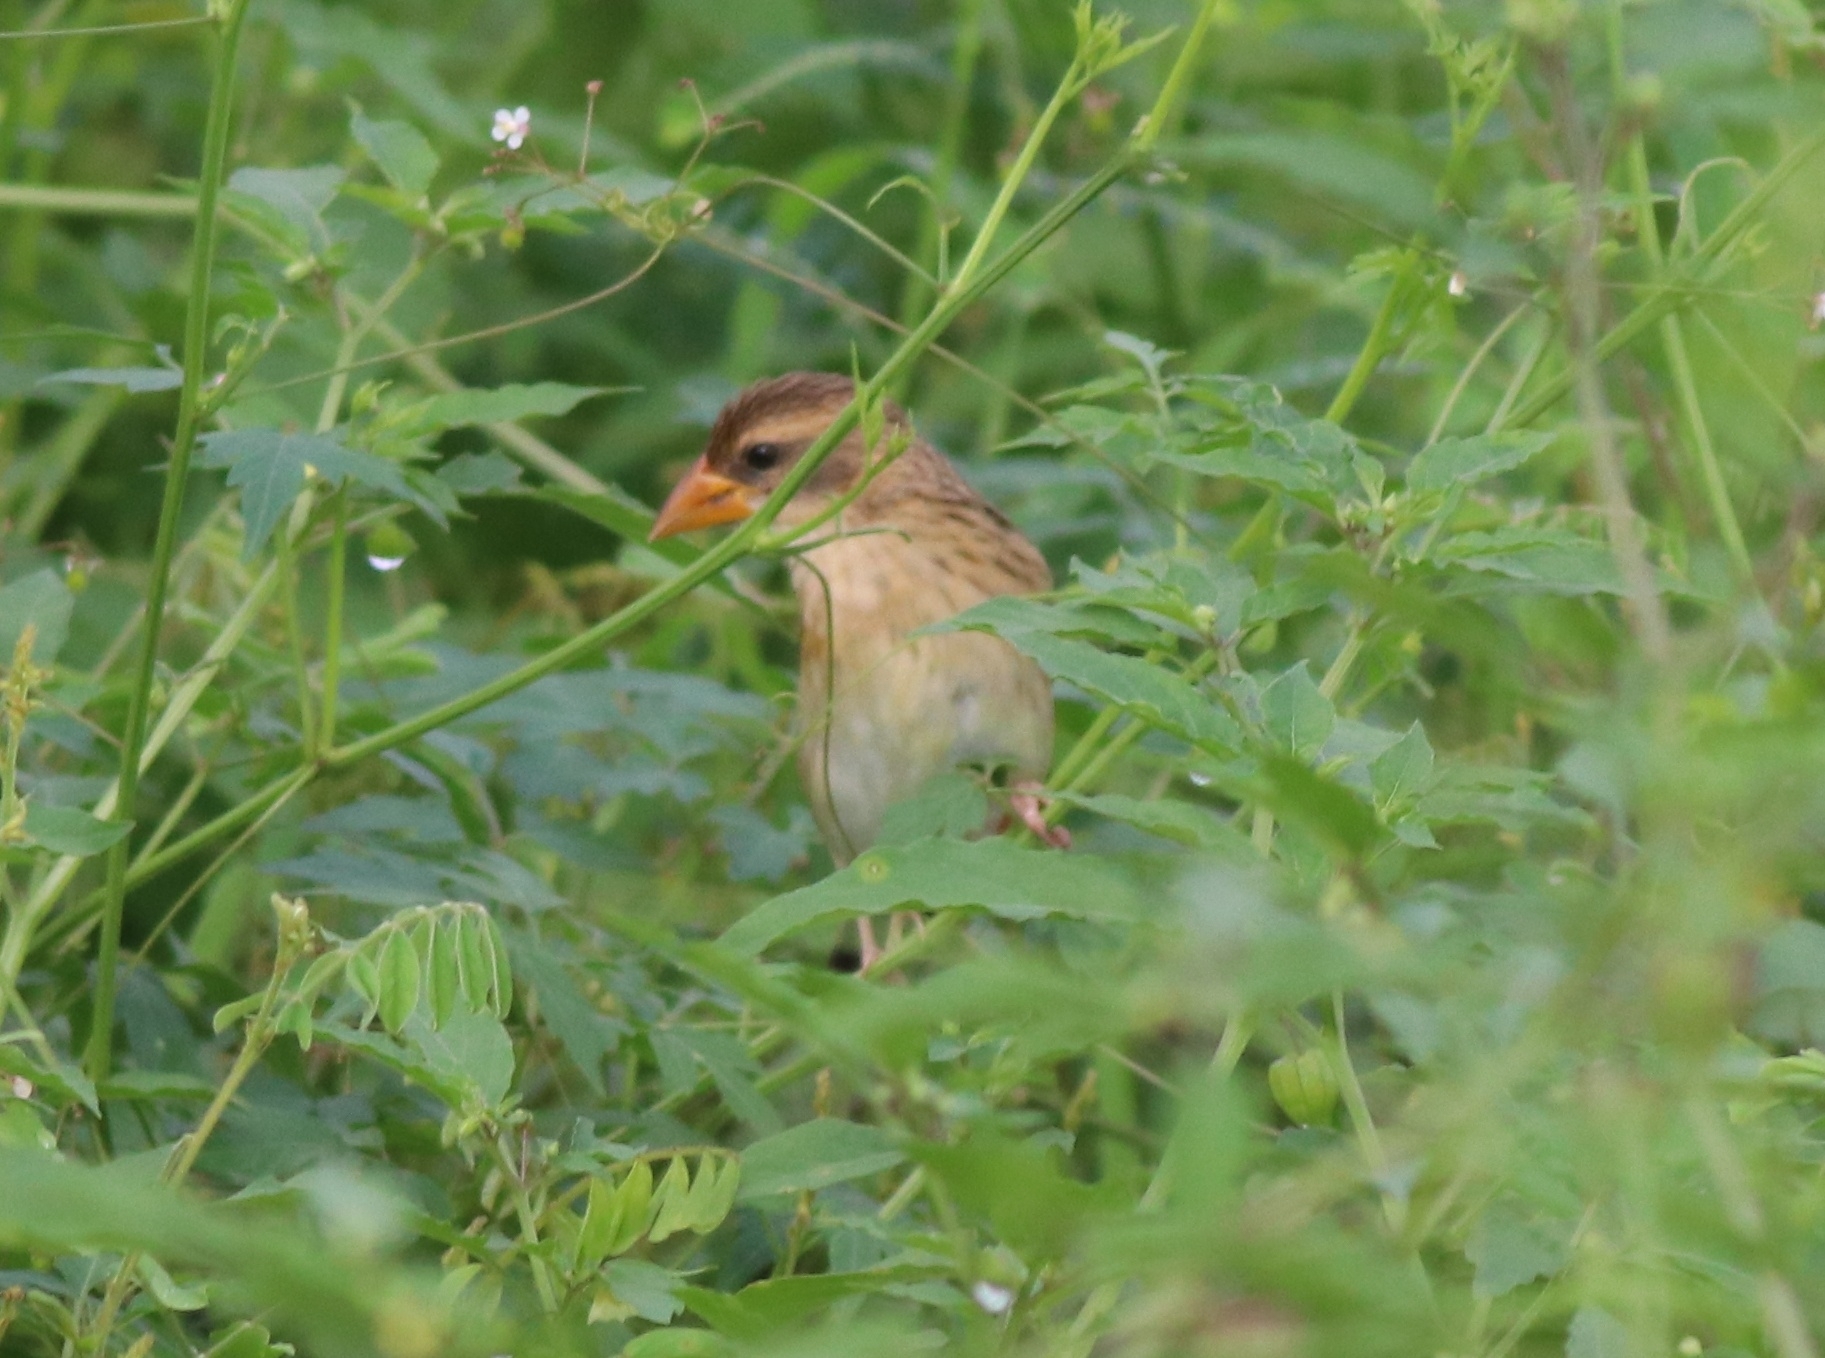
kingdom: Animalia
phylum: Chordata
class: Aves
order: Passeriformes
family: Ploceidae
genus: Ploceus
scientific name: Ploceus philippinus
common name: Baya weaver
